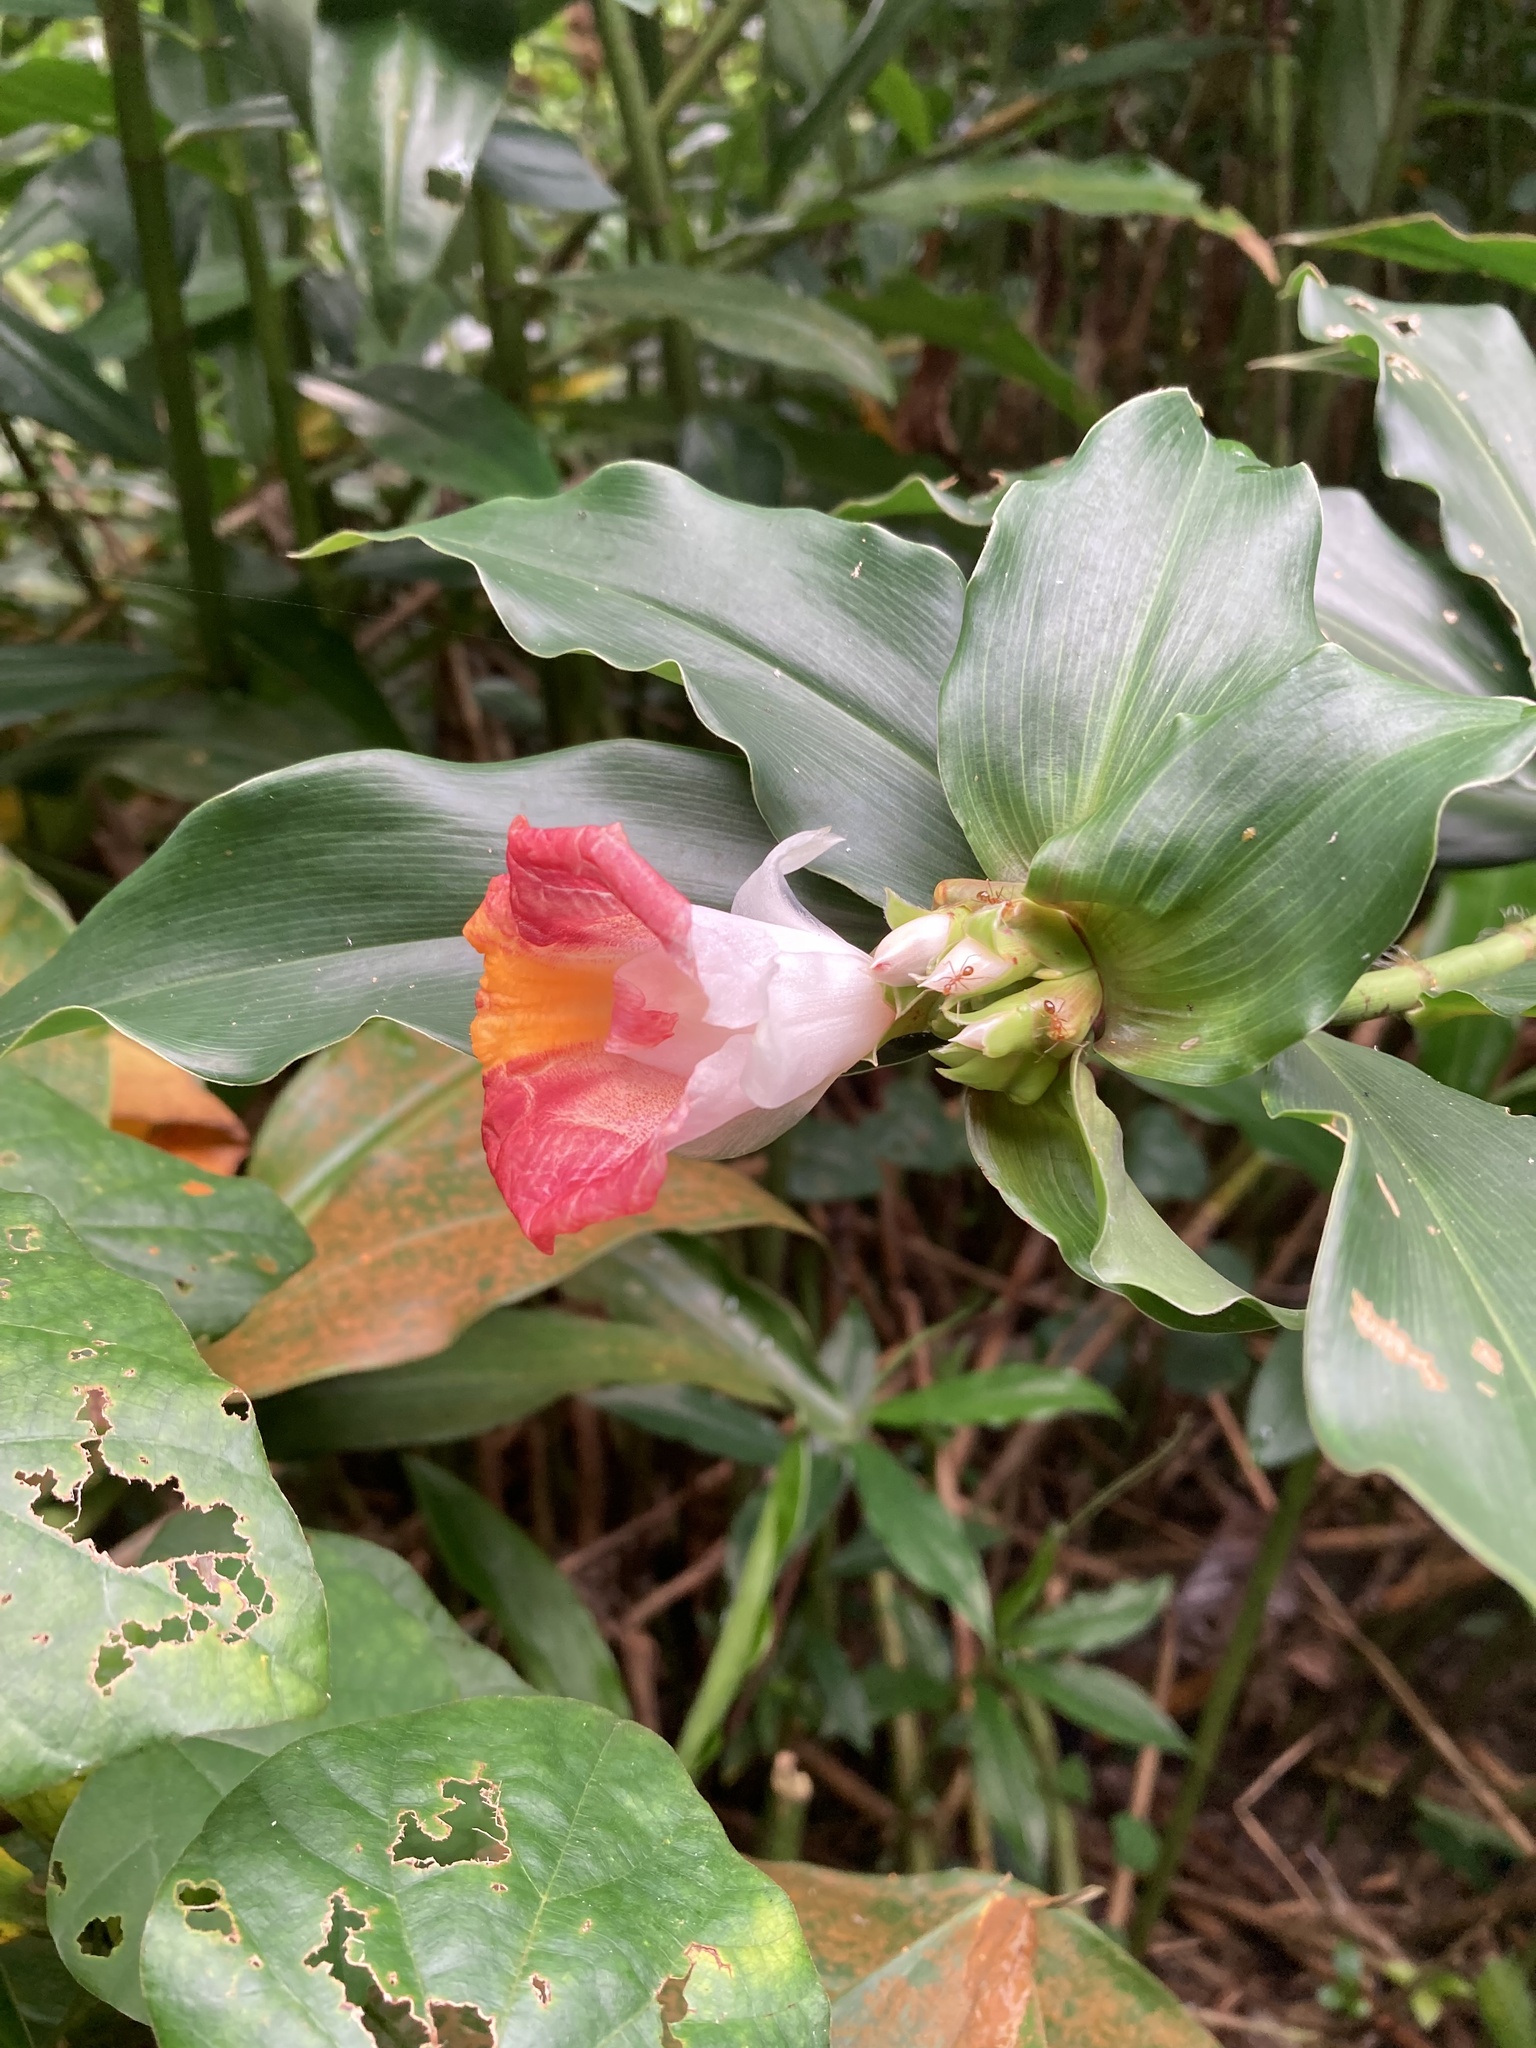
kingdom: Plantae
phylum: Tracheophyta
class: Liliopsida
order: Zingiberales
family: Costaceae
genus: Costus
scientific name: Costus lucanusianus
